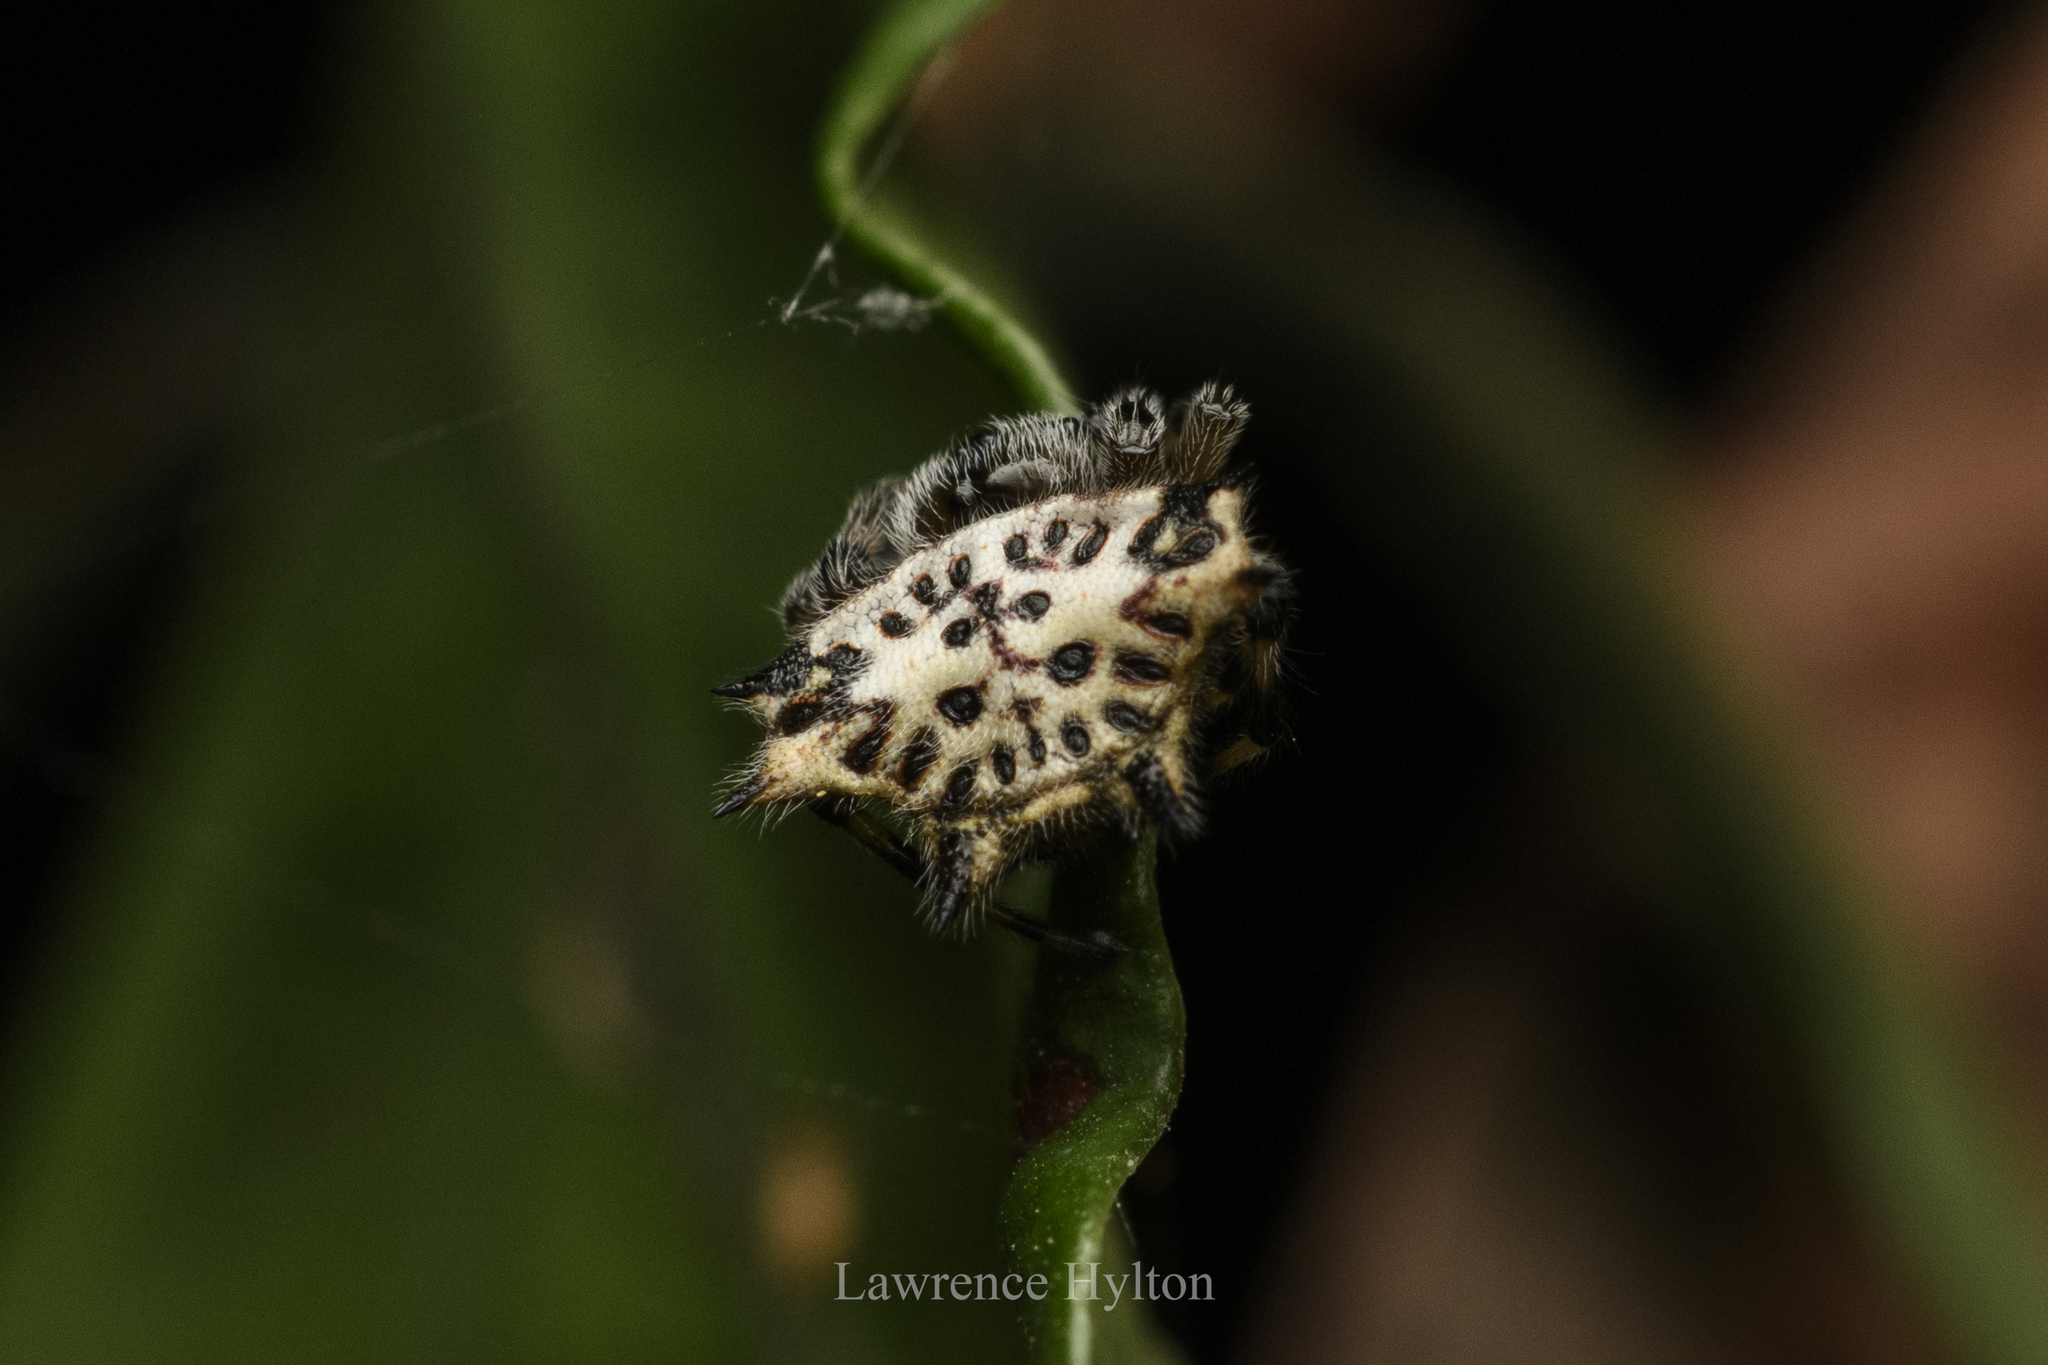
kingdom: Animalia
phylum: Arthropoda
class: Arachnida
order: Araneae
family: Araneidae
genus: Gasteracantha
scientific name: Gasteracantha kuhli
